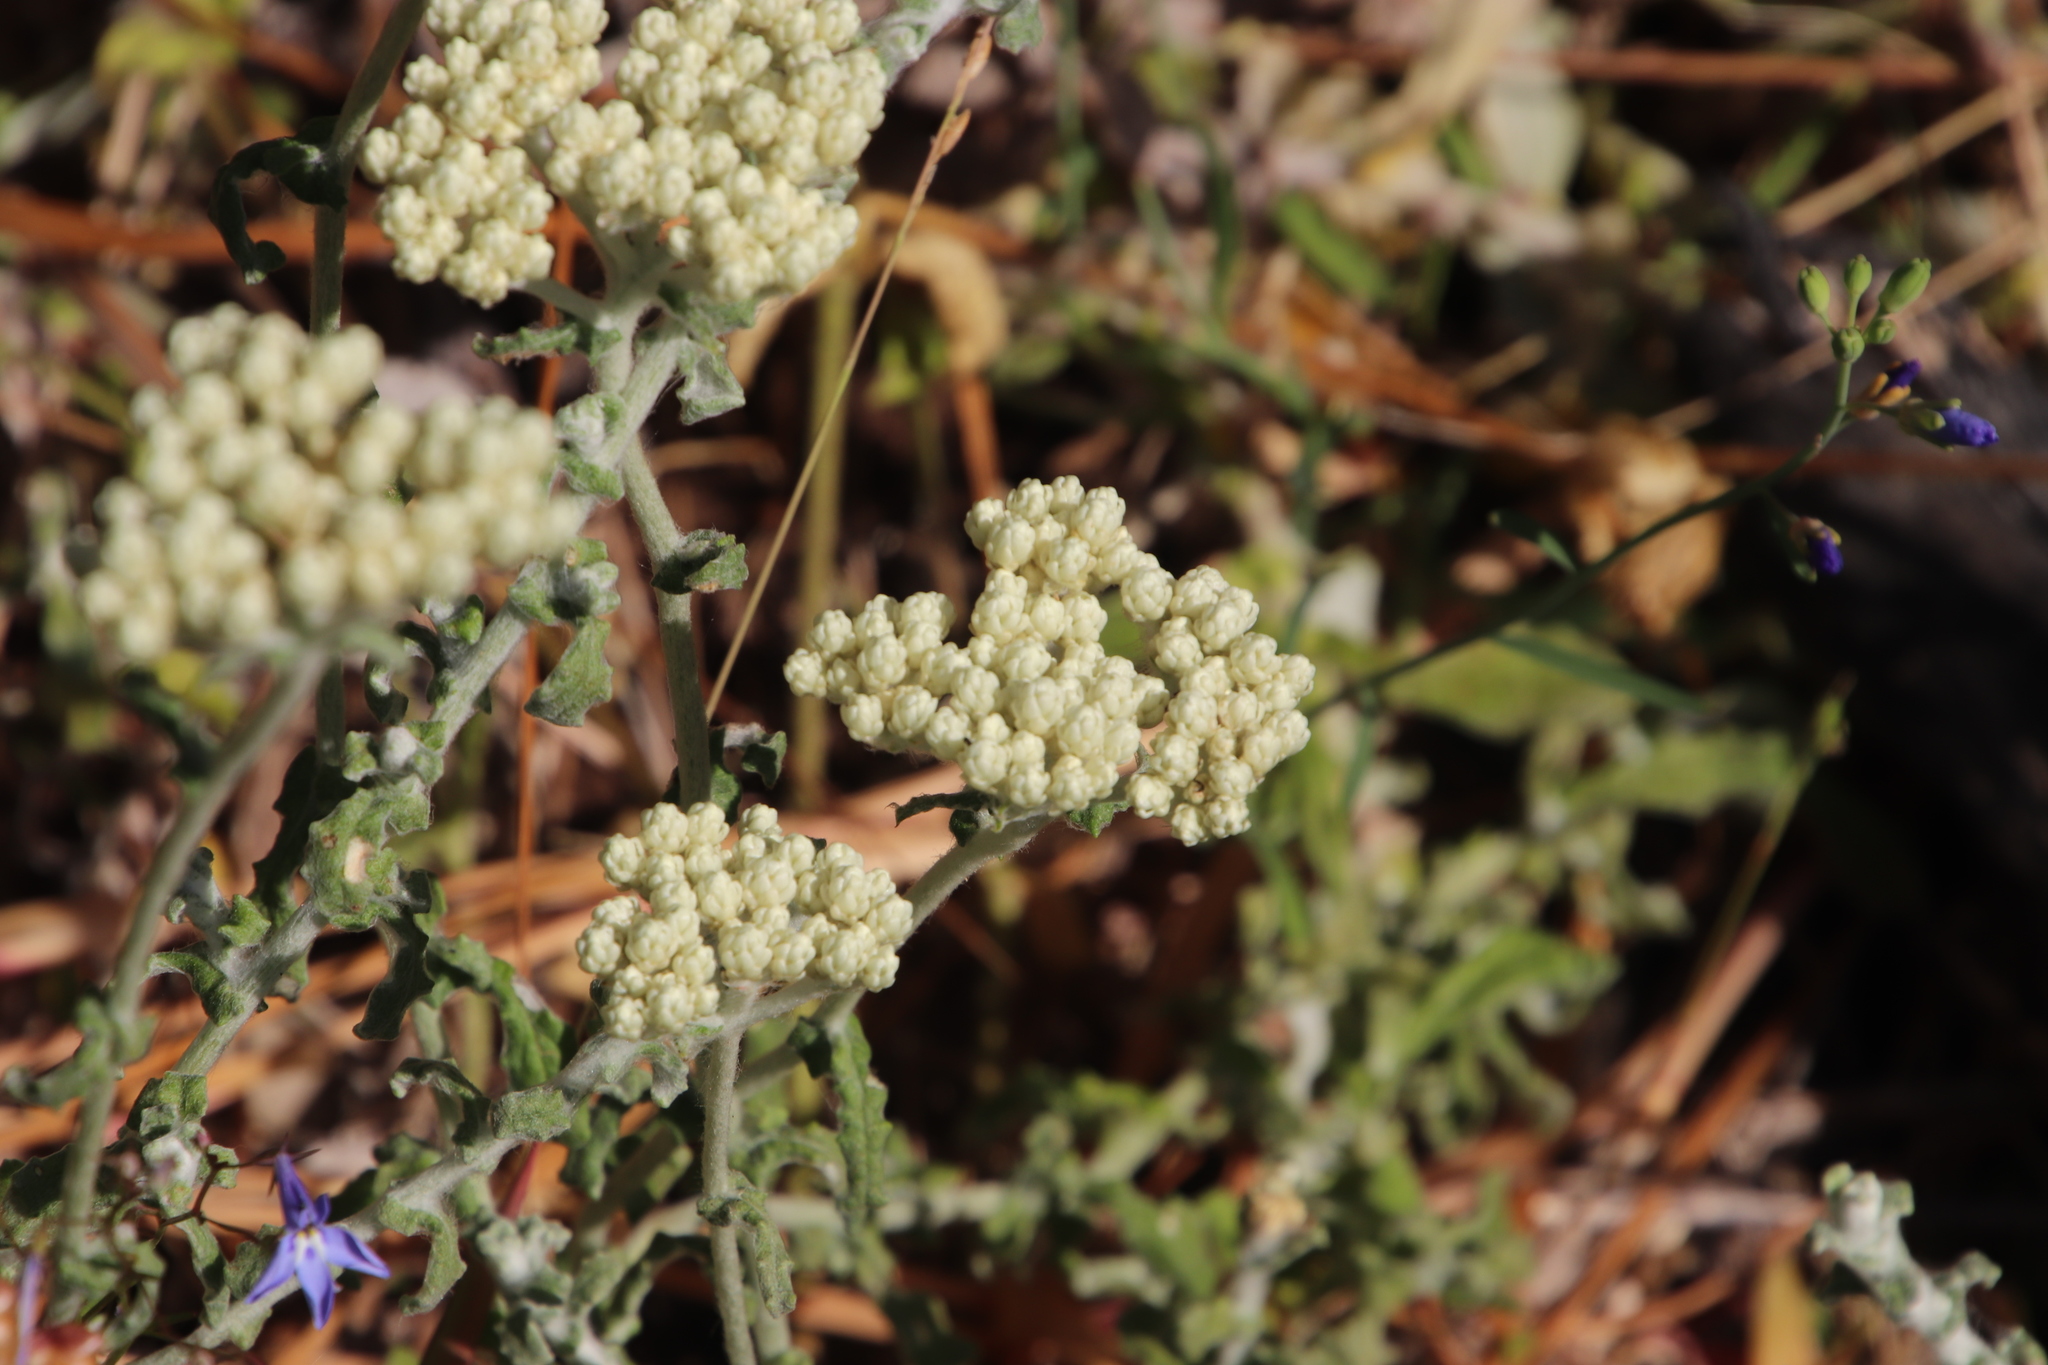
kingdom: Plantae
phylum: Tracheophyta
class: Magnoliopsida
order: Asterales
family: Asteraceae
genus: Helichrysum
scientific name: Helichrysum patulum
